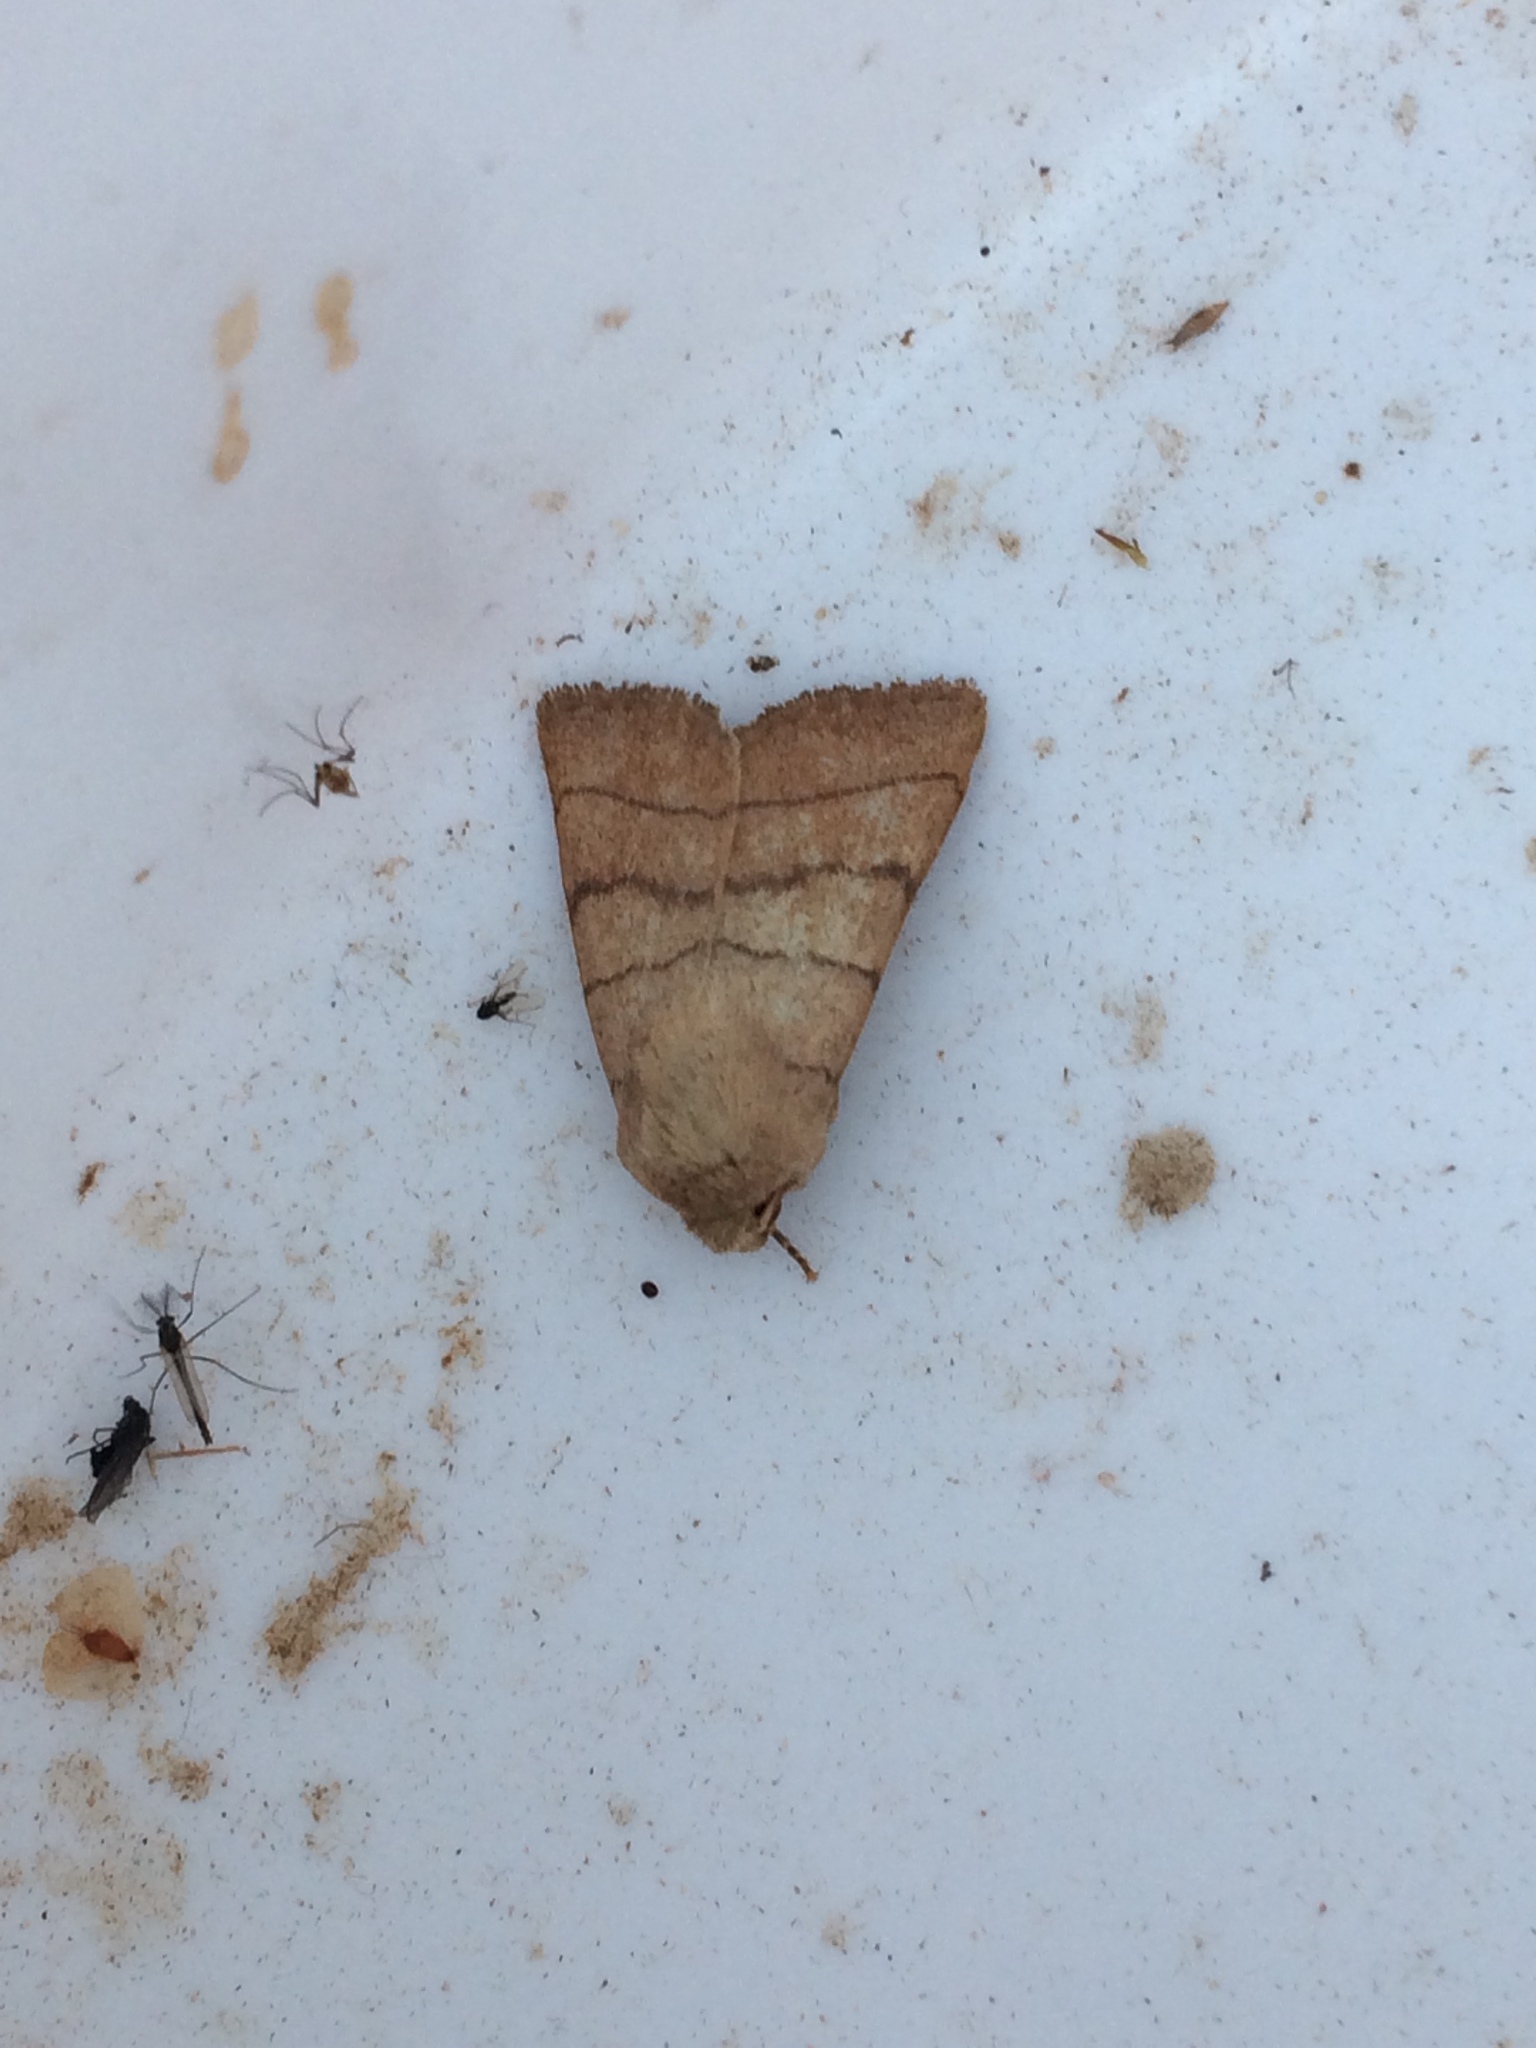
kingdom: Animalia
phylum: Arthropoda
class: Insecta
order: Lepidoptera
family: Noctuidae
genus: Charanyca
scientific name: Charanyca trigrammica
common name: Treble lines
